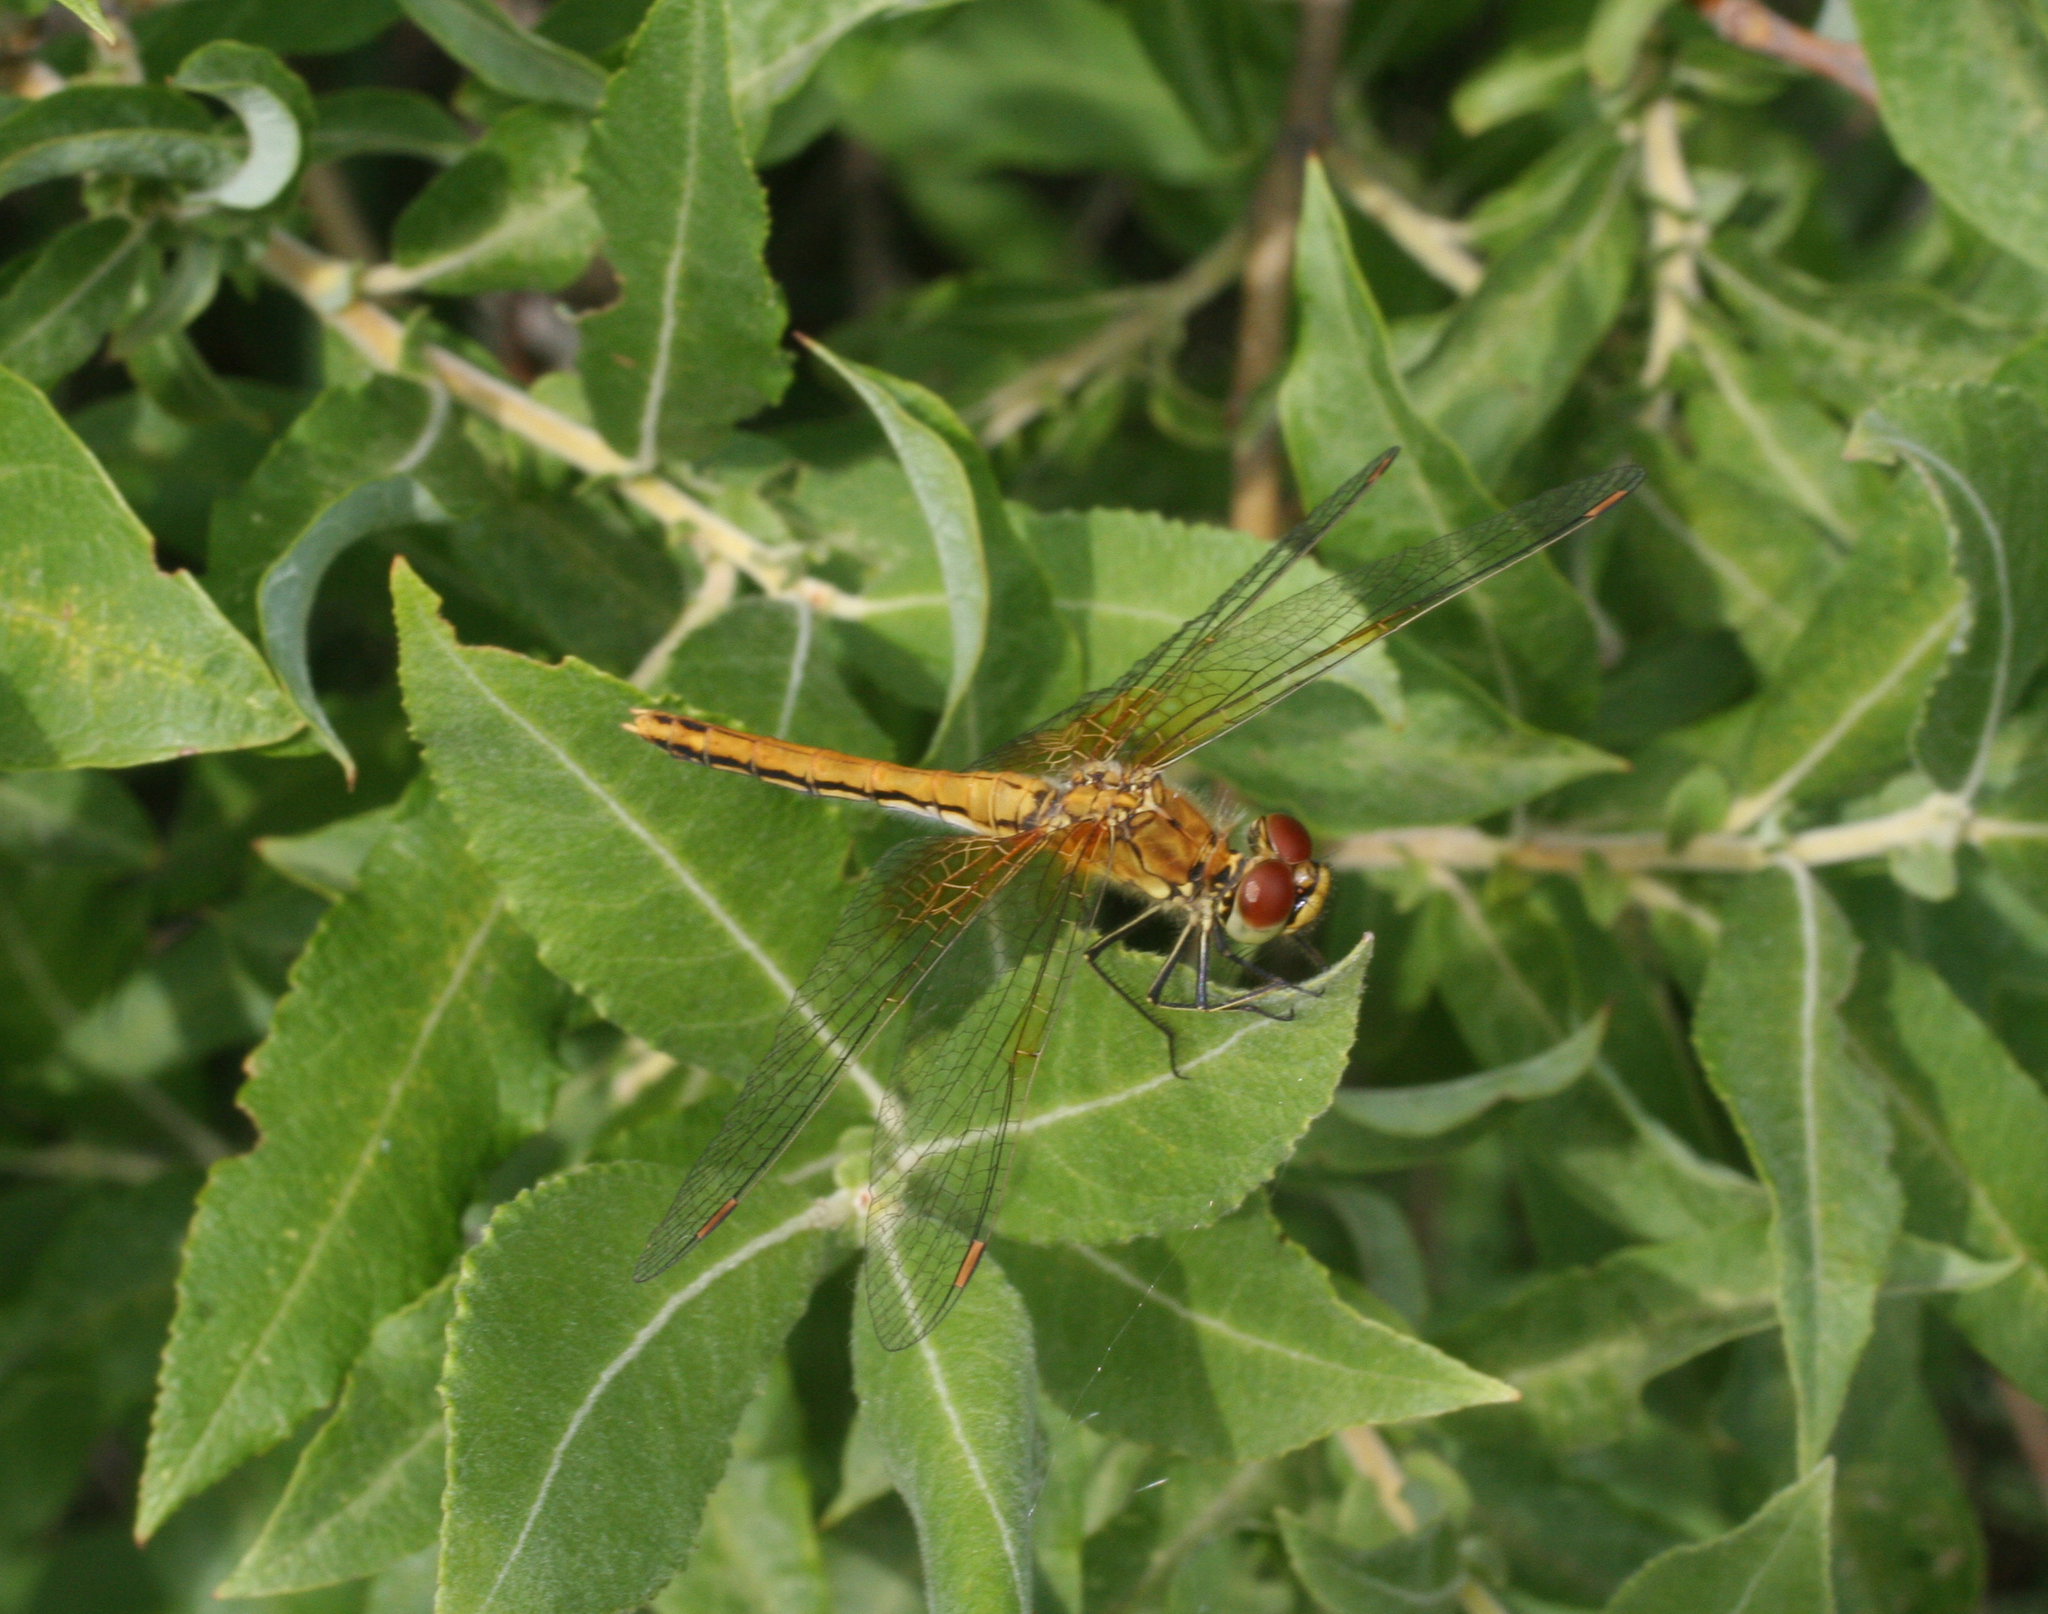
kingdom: Animalia
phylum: Arthropoda
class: Insecta
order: Odonata
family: Libellulidae
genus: Sympetrum
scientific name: Sympetrum flaveolum
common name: Yellow-winged darter
